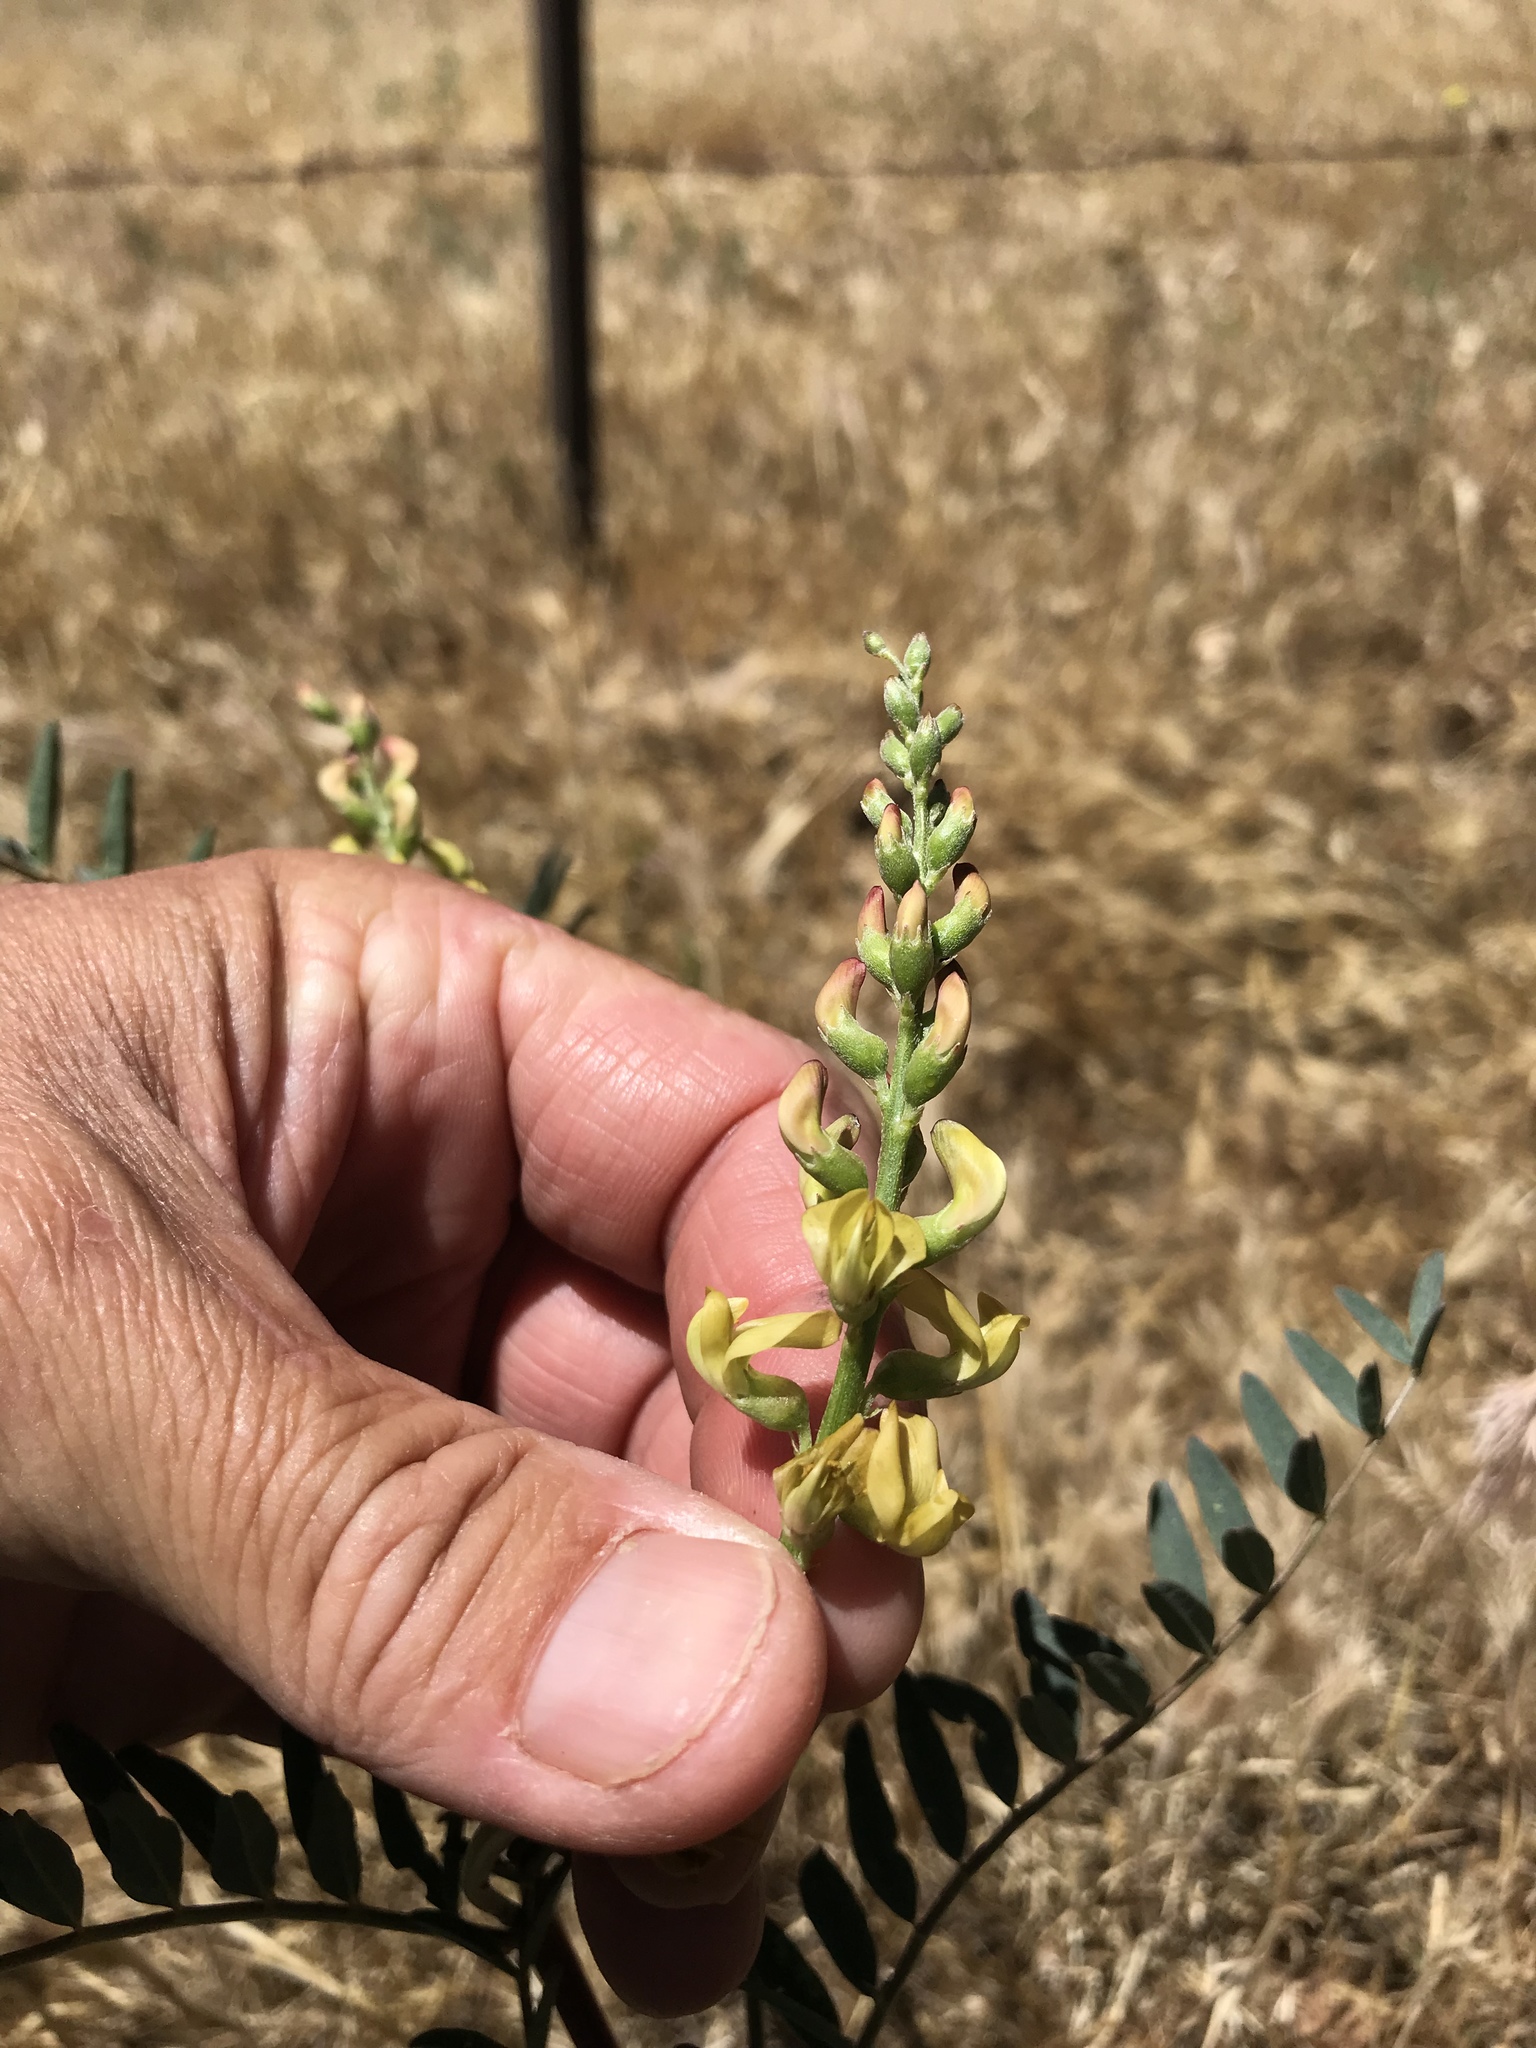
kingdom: Plantae
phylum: Tracheophyta
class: Magnoliopsida
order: Fabales
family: Fabaceae
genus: Astragalus
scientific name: Astragalus douglasii
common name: Jacumba milkvetch
